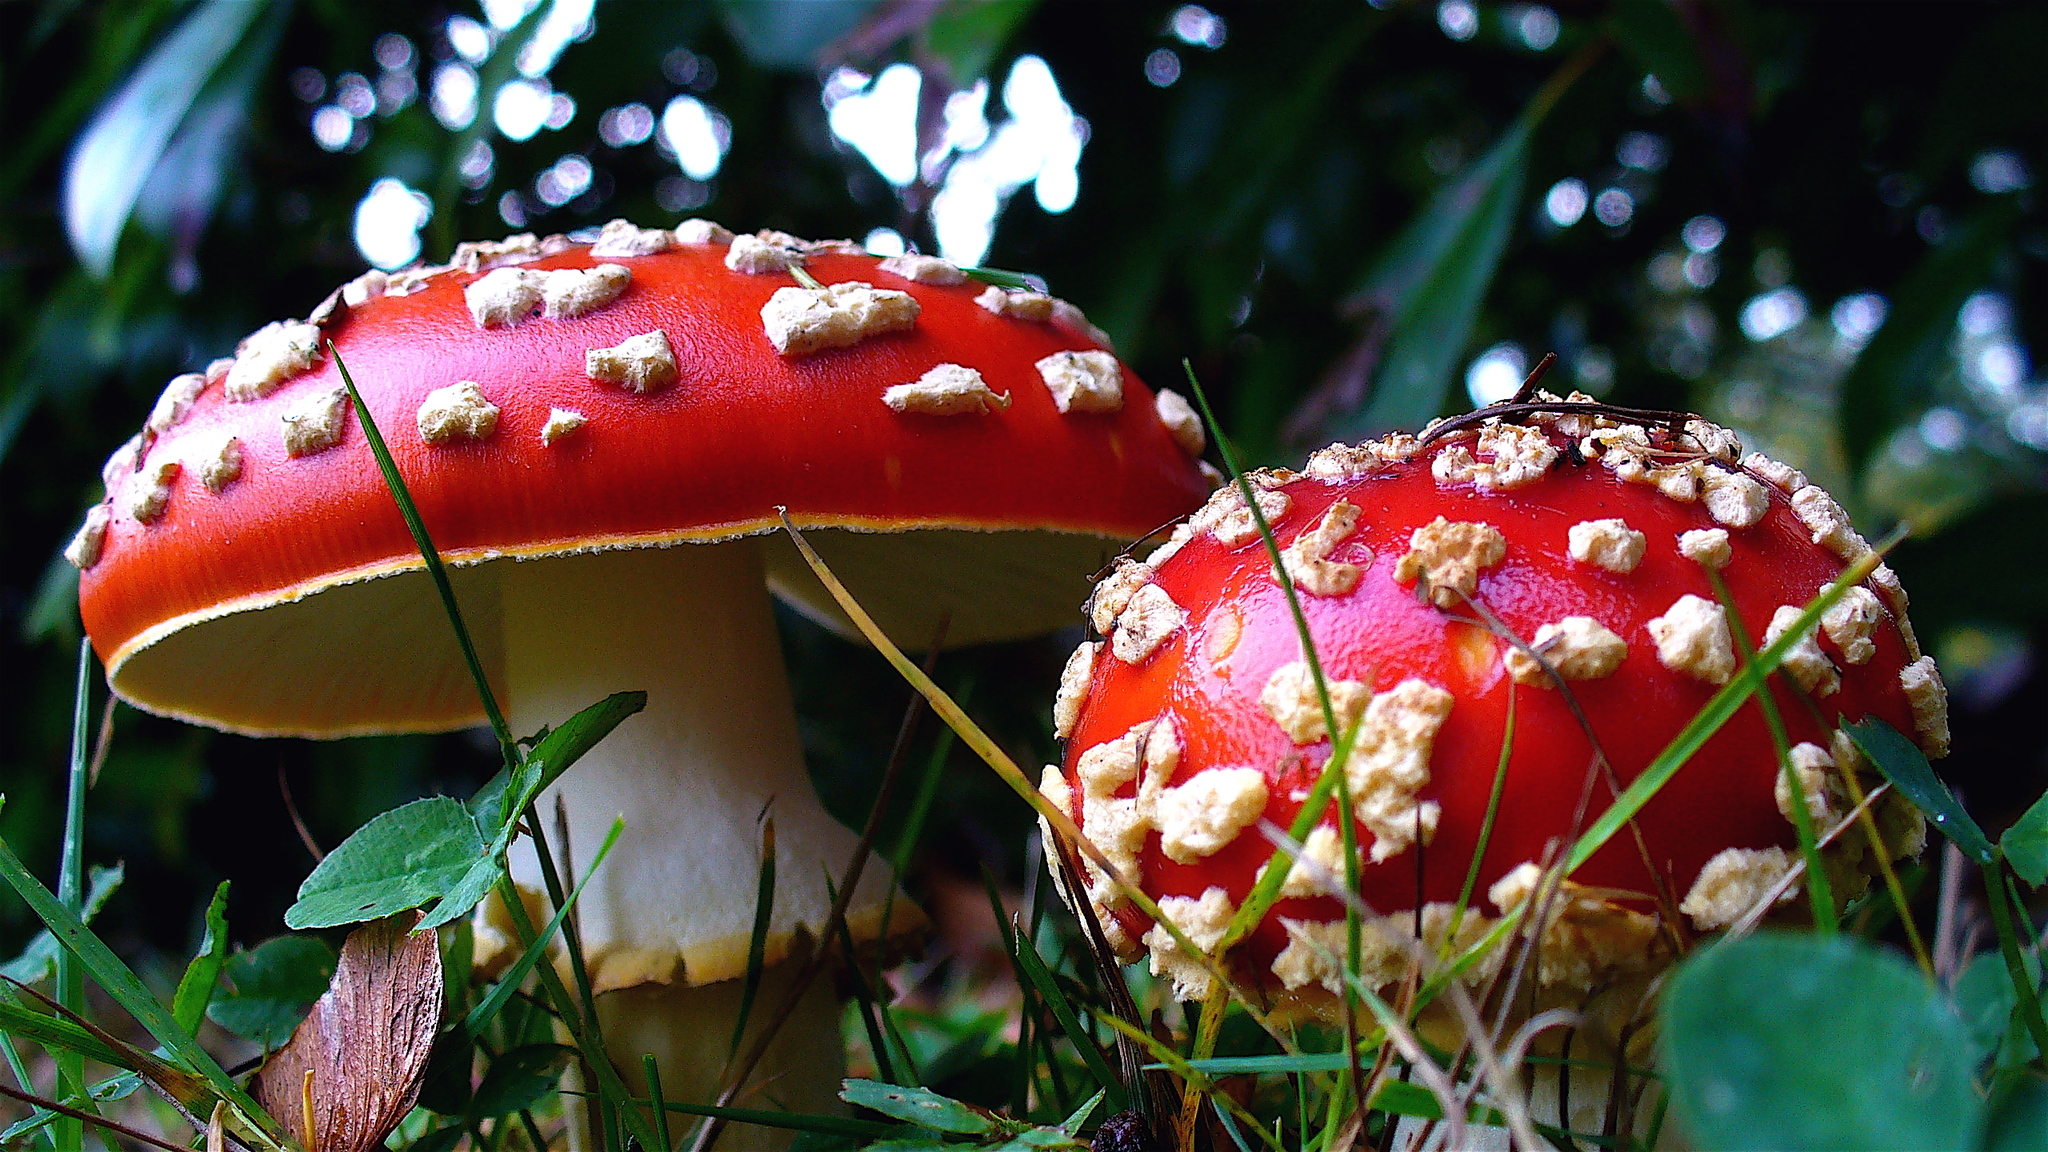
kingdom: Fungi
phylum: Basidiomycota
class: Agaricomycetes
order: Agaricales
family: Amanitaceae
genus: Amanita
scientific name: Amanita muscaria
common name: Fly agaric
